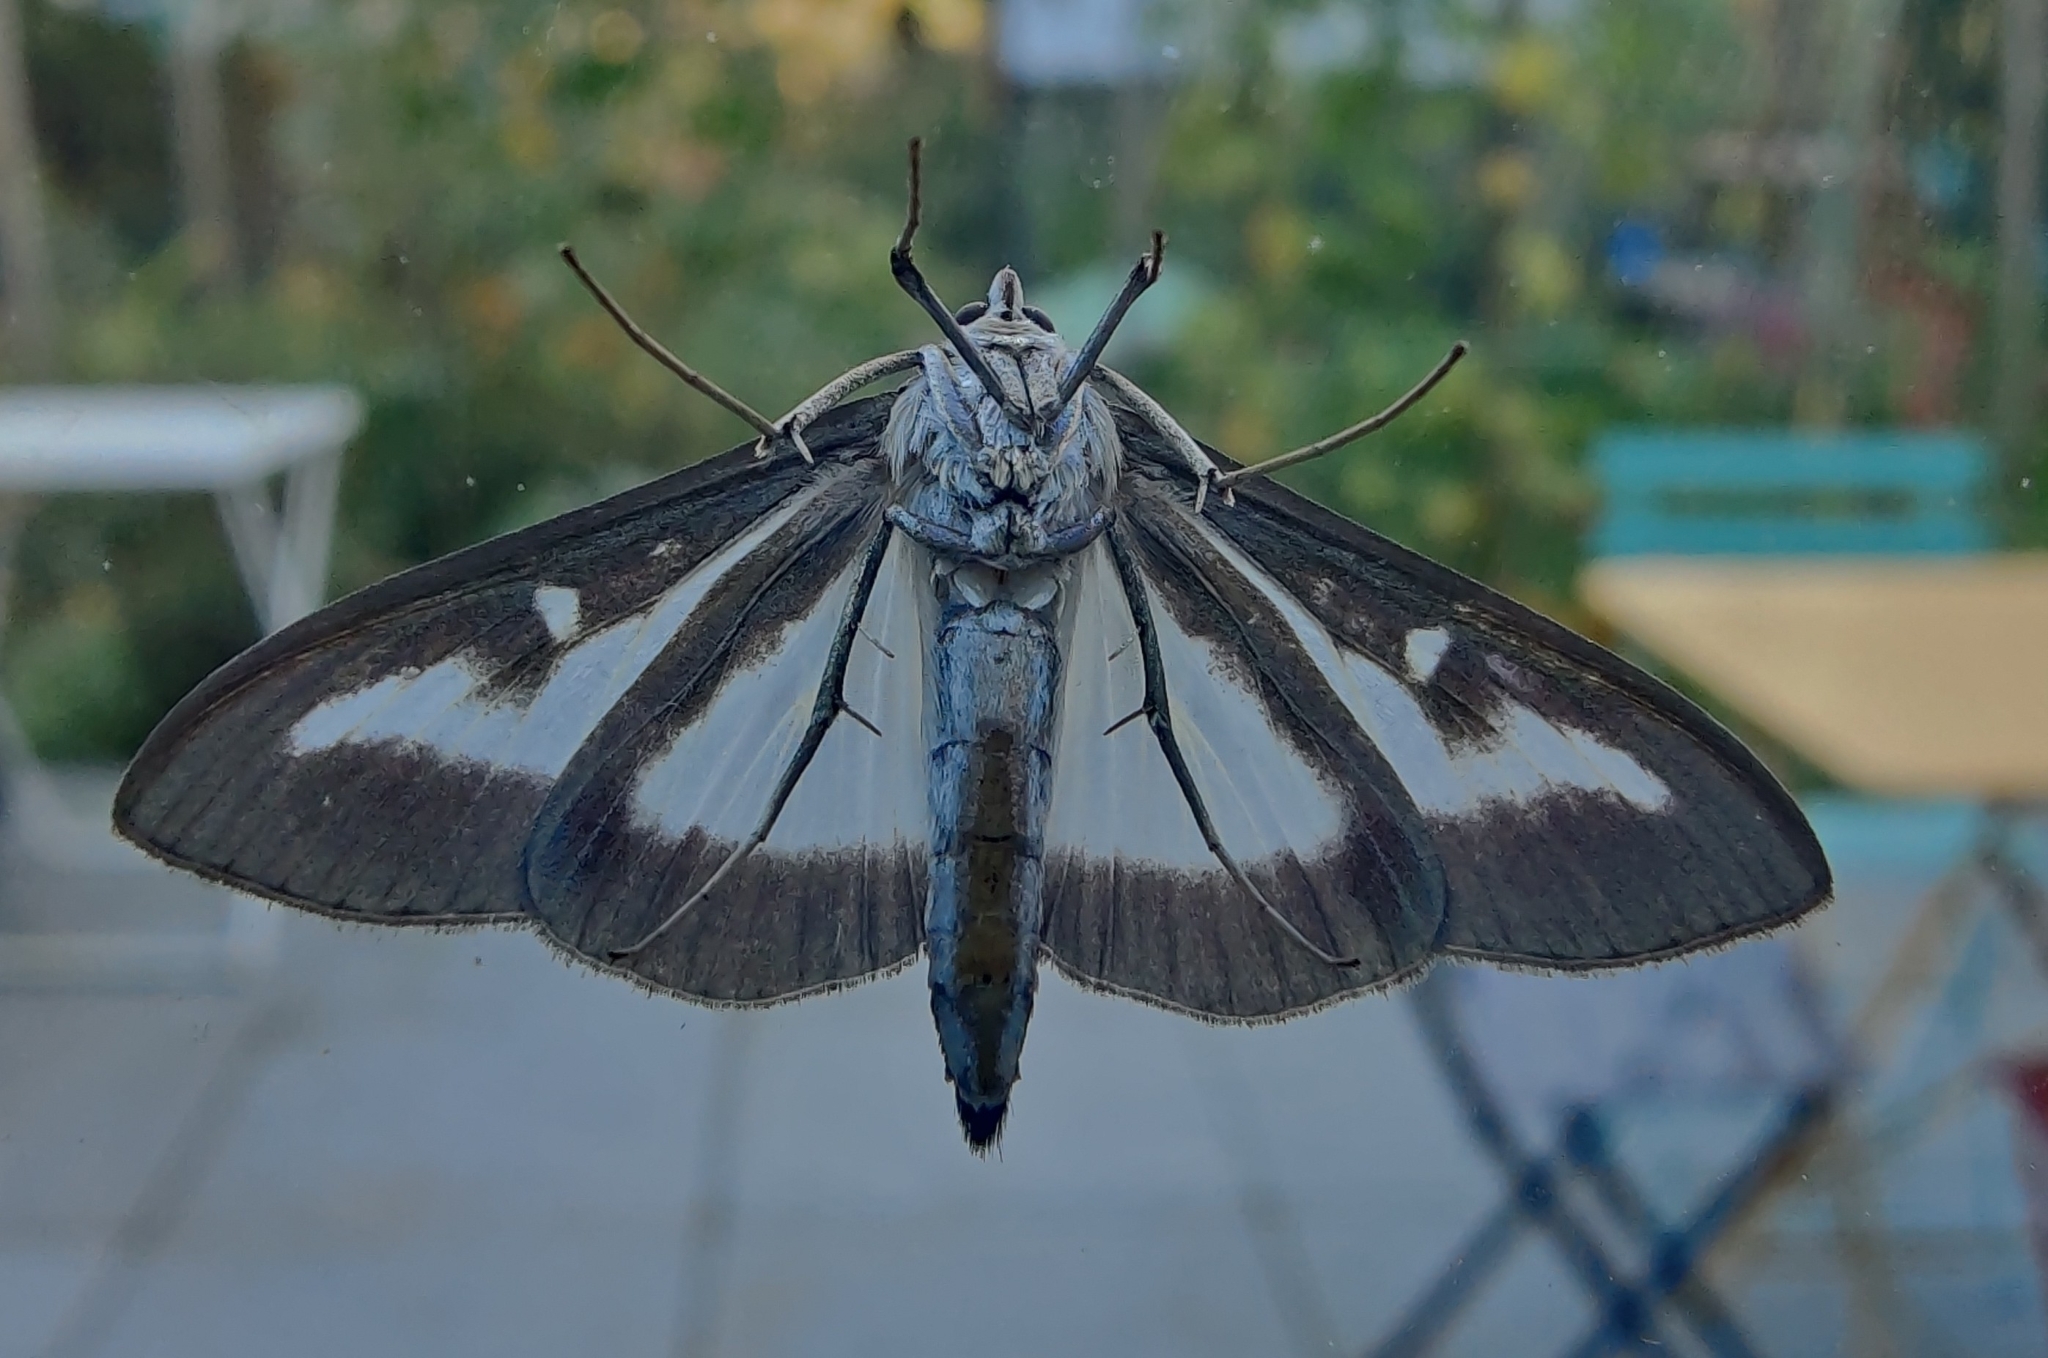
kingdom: Animalia
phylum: Arthropoda
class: Insecta
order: Lepidoptera
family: Crambidae
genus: Cydalima
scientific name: Cydalima perspectalis
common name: Box tree moth
